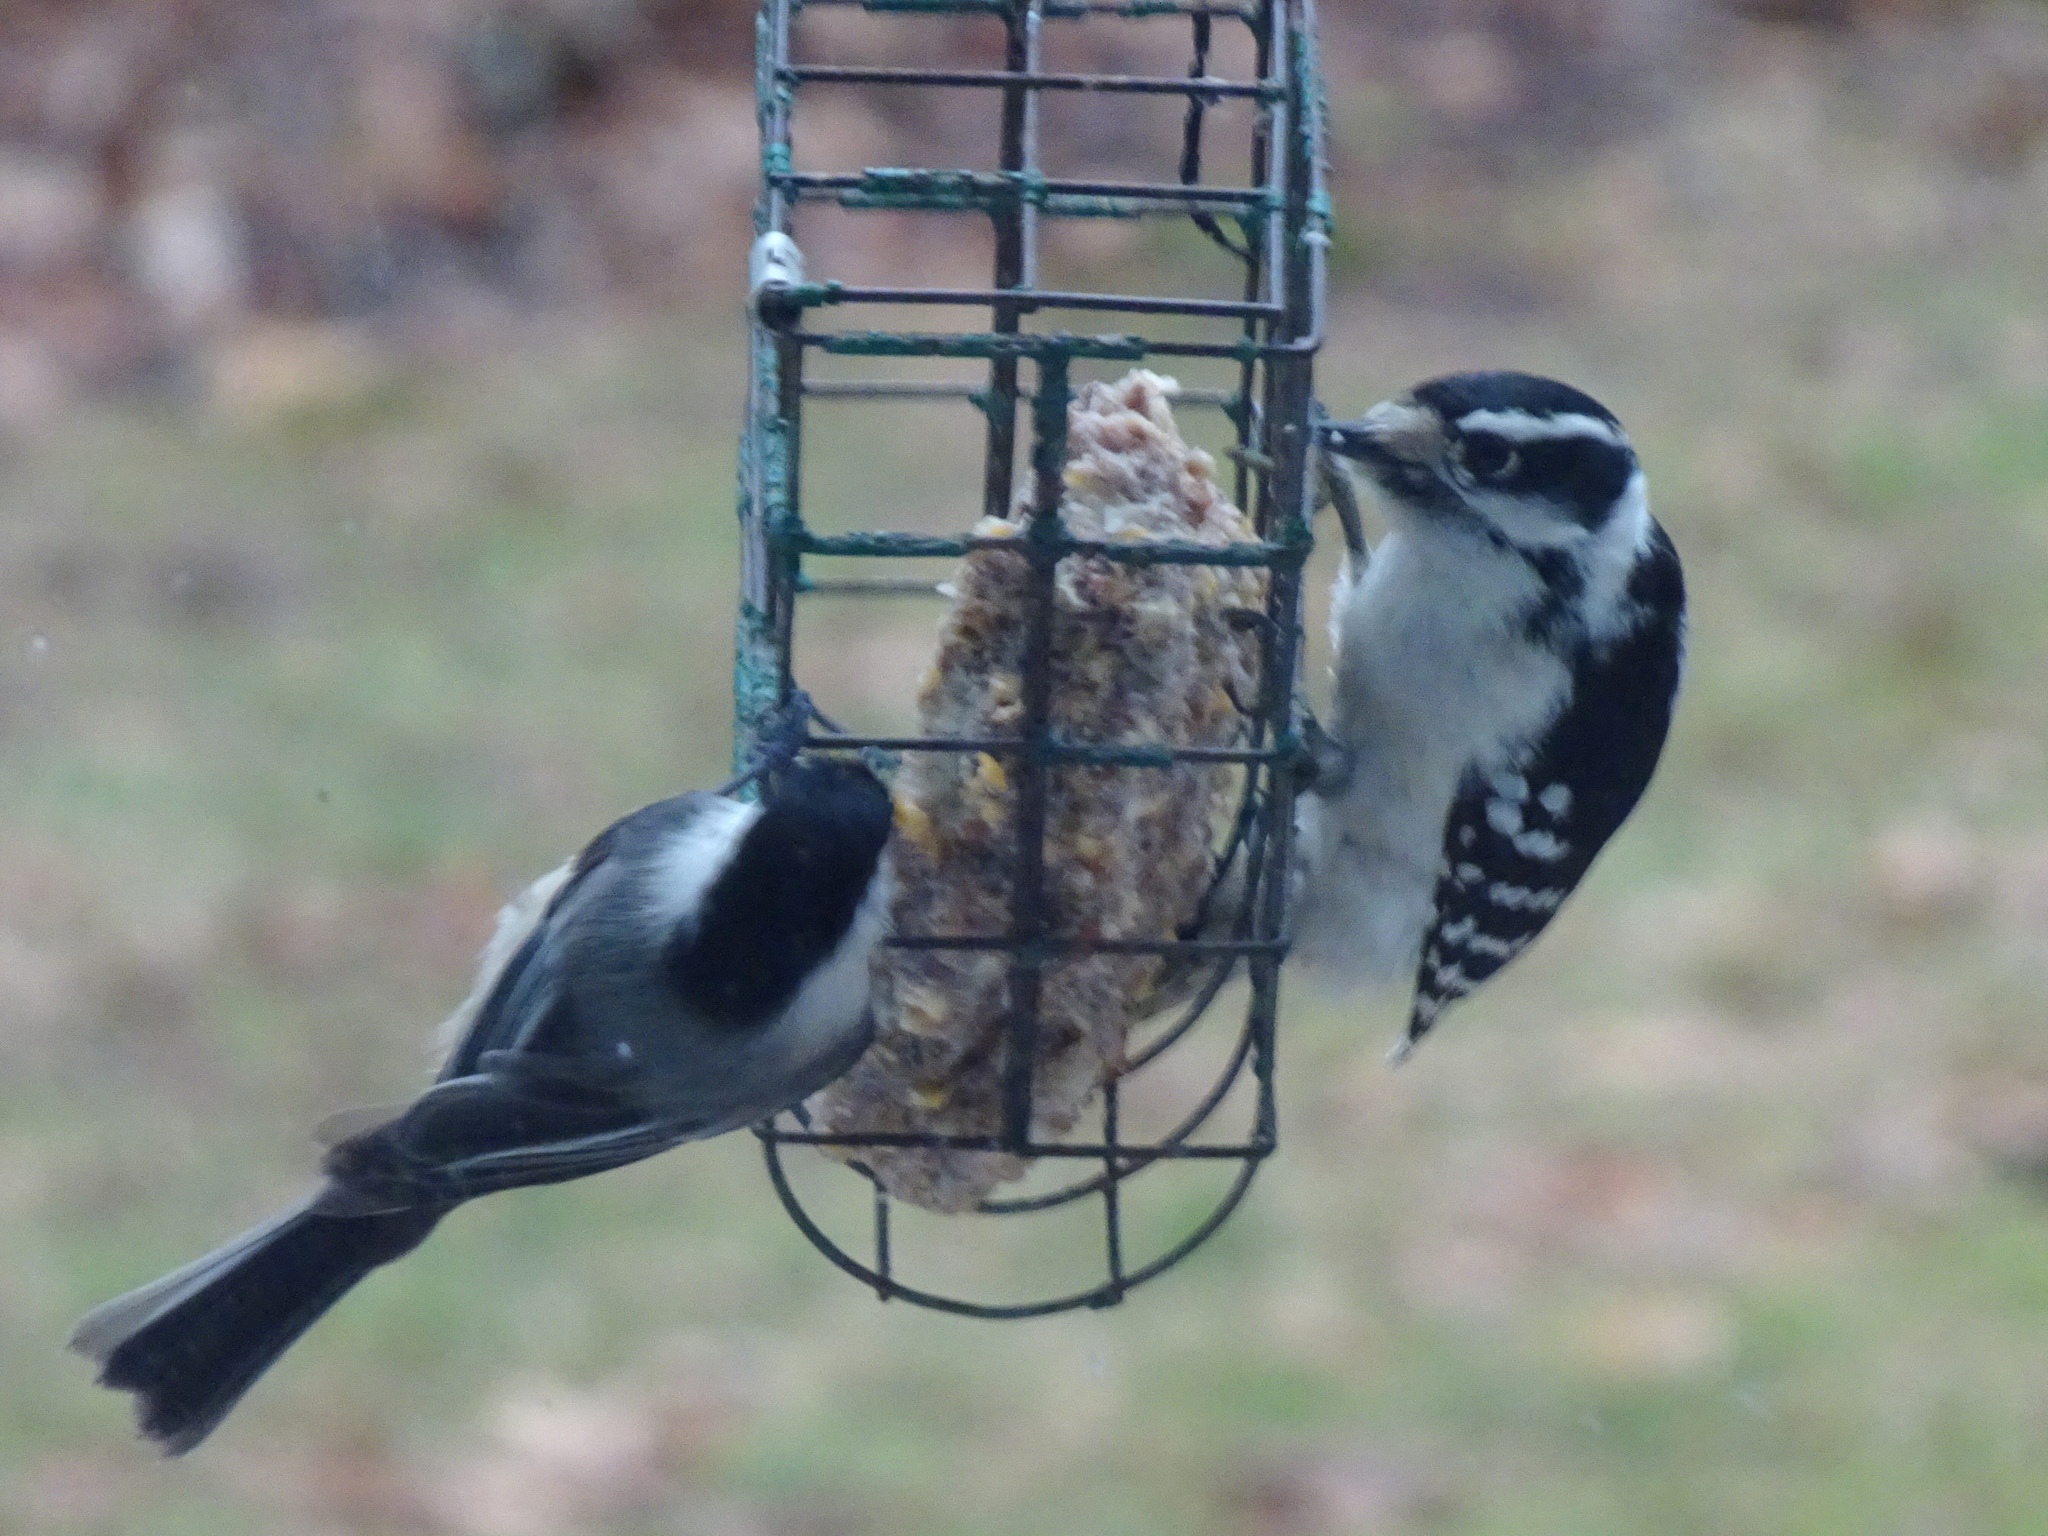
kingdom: Animalia
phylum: Chordata
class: Aves
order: Piciformes
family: Picidae
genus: Dryobates
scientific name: Dryobates pubescens
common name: Downy woodpecker
